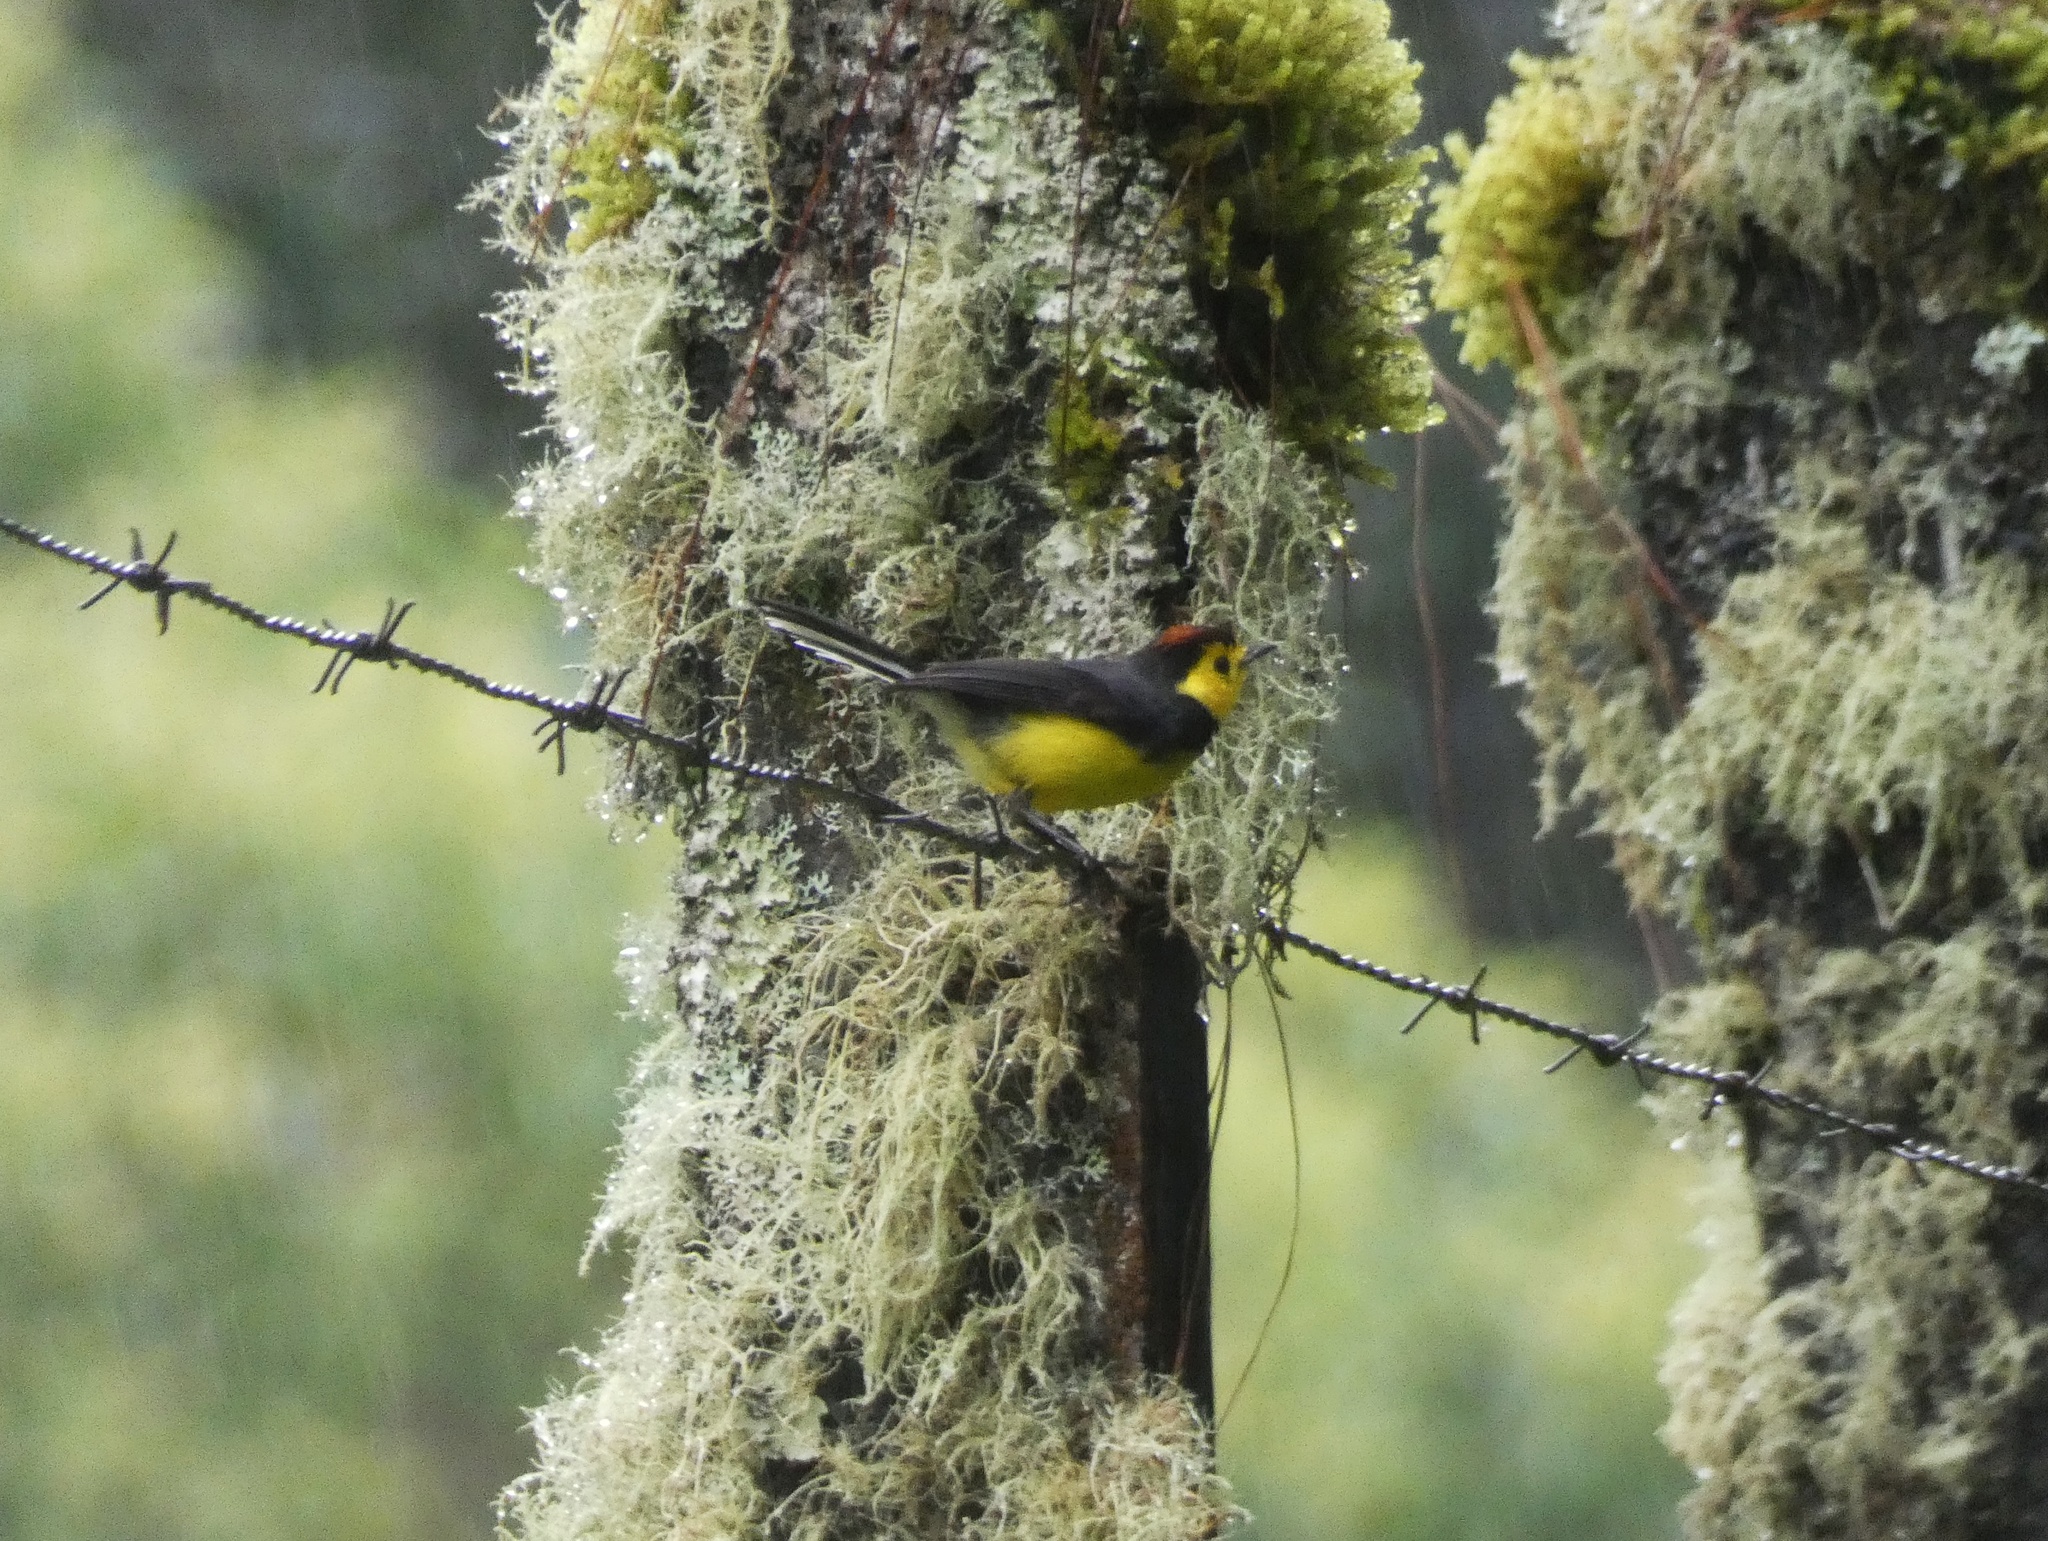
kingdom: Animalia
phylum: Chordata
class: Aves
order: Passeriformes
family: Parulidae
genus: Myioborus
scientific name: Myioborus torquatus
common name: Collared whitestart
